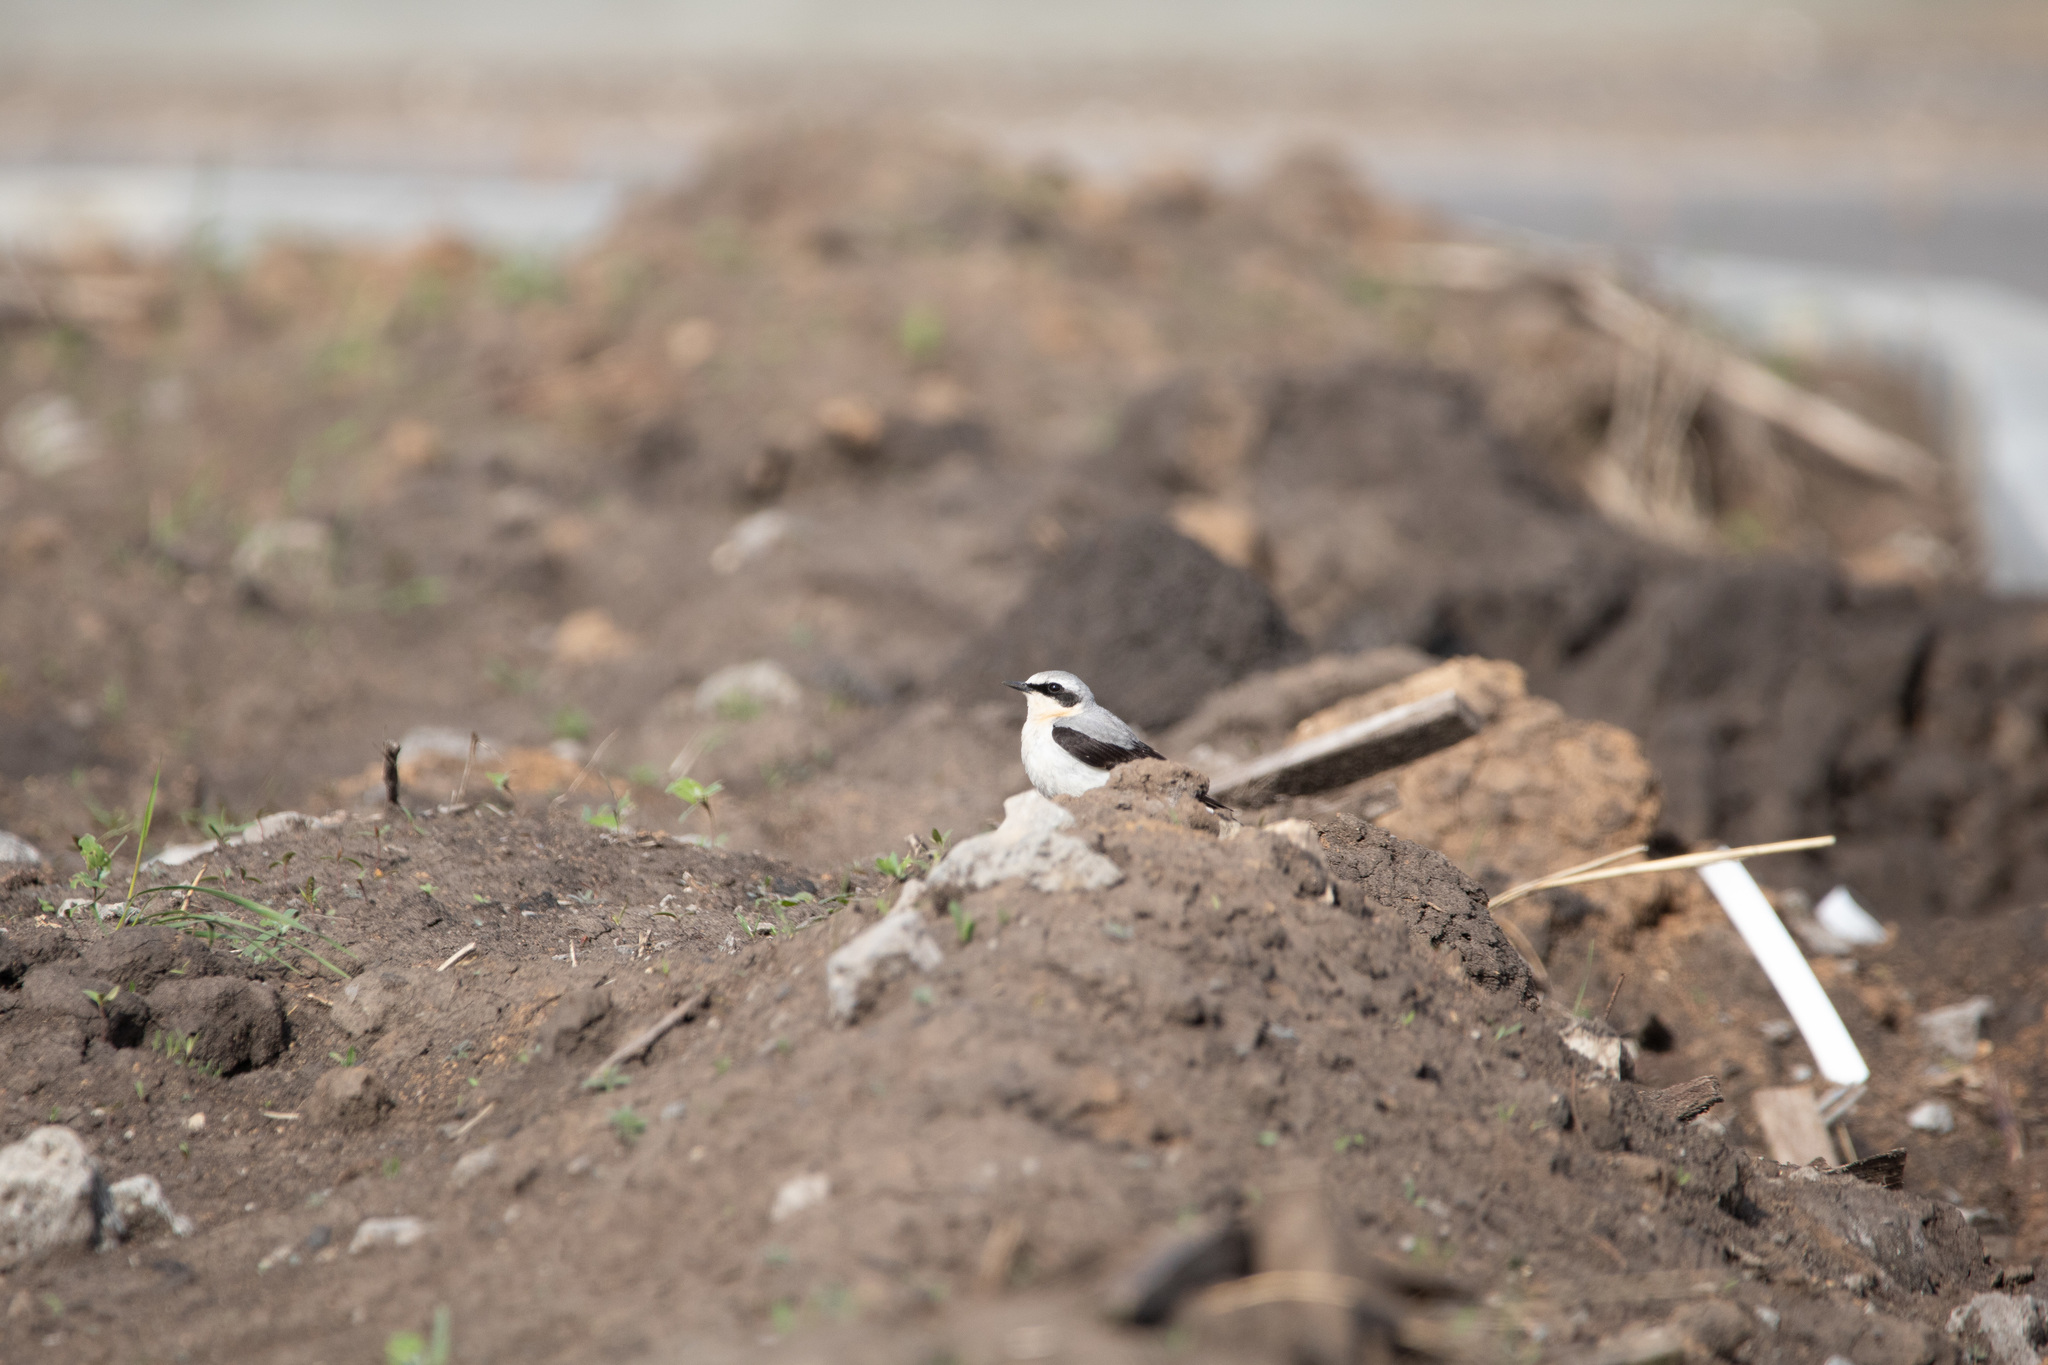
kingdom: Animalia
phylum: Chordata
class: Aves
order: Passeriformes
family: Muscicapidae
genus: Oenanthe
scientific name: Oenanthe oenanthe
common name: Northern wheatear
